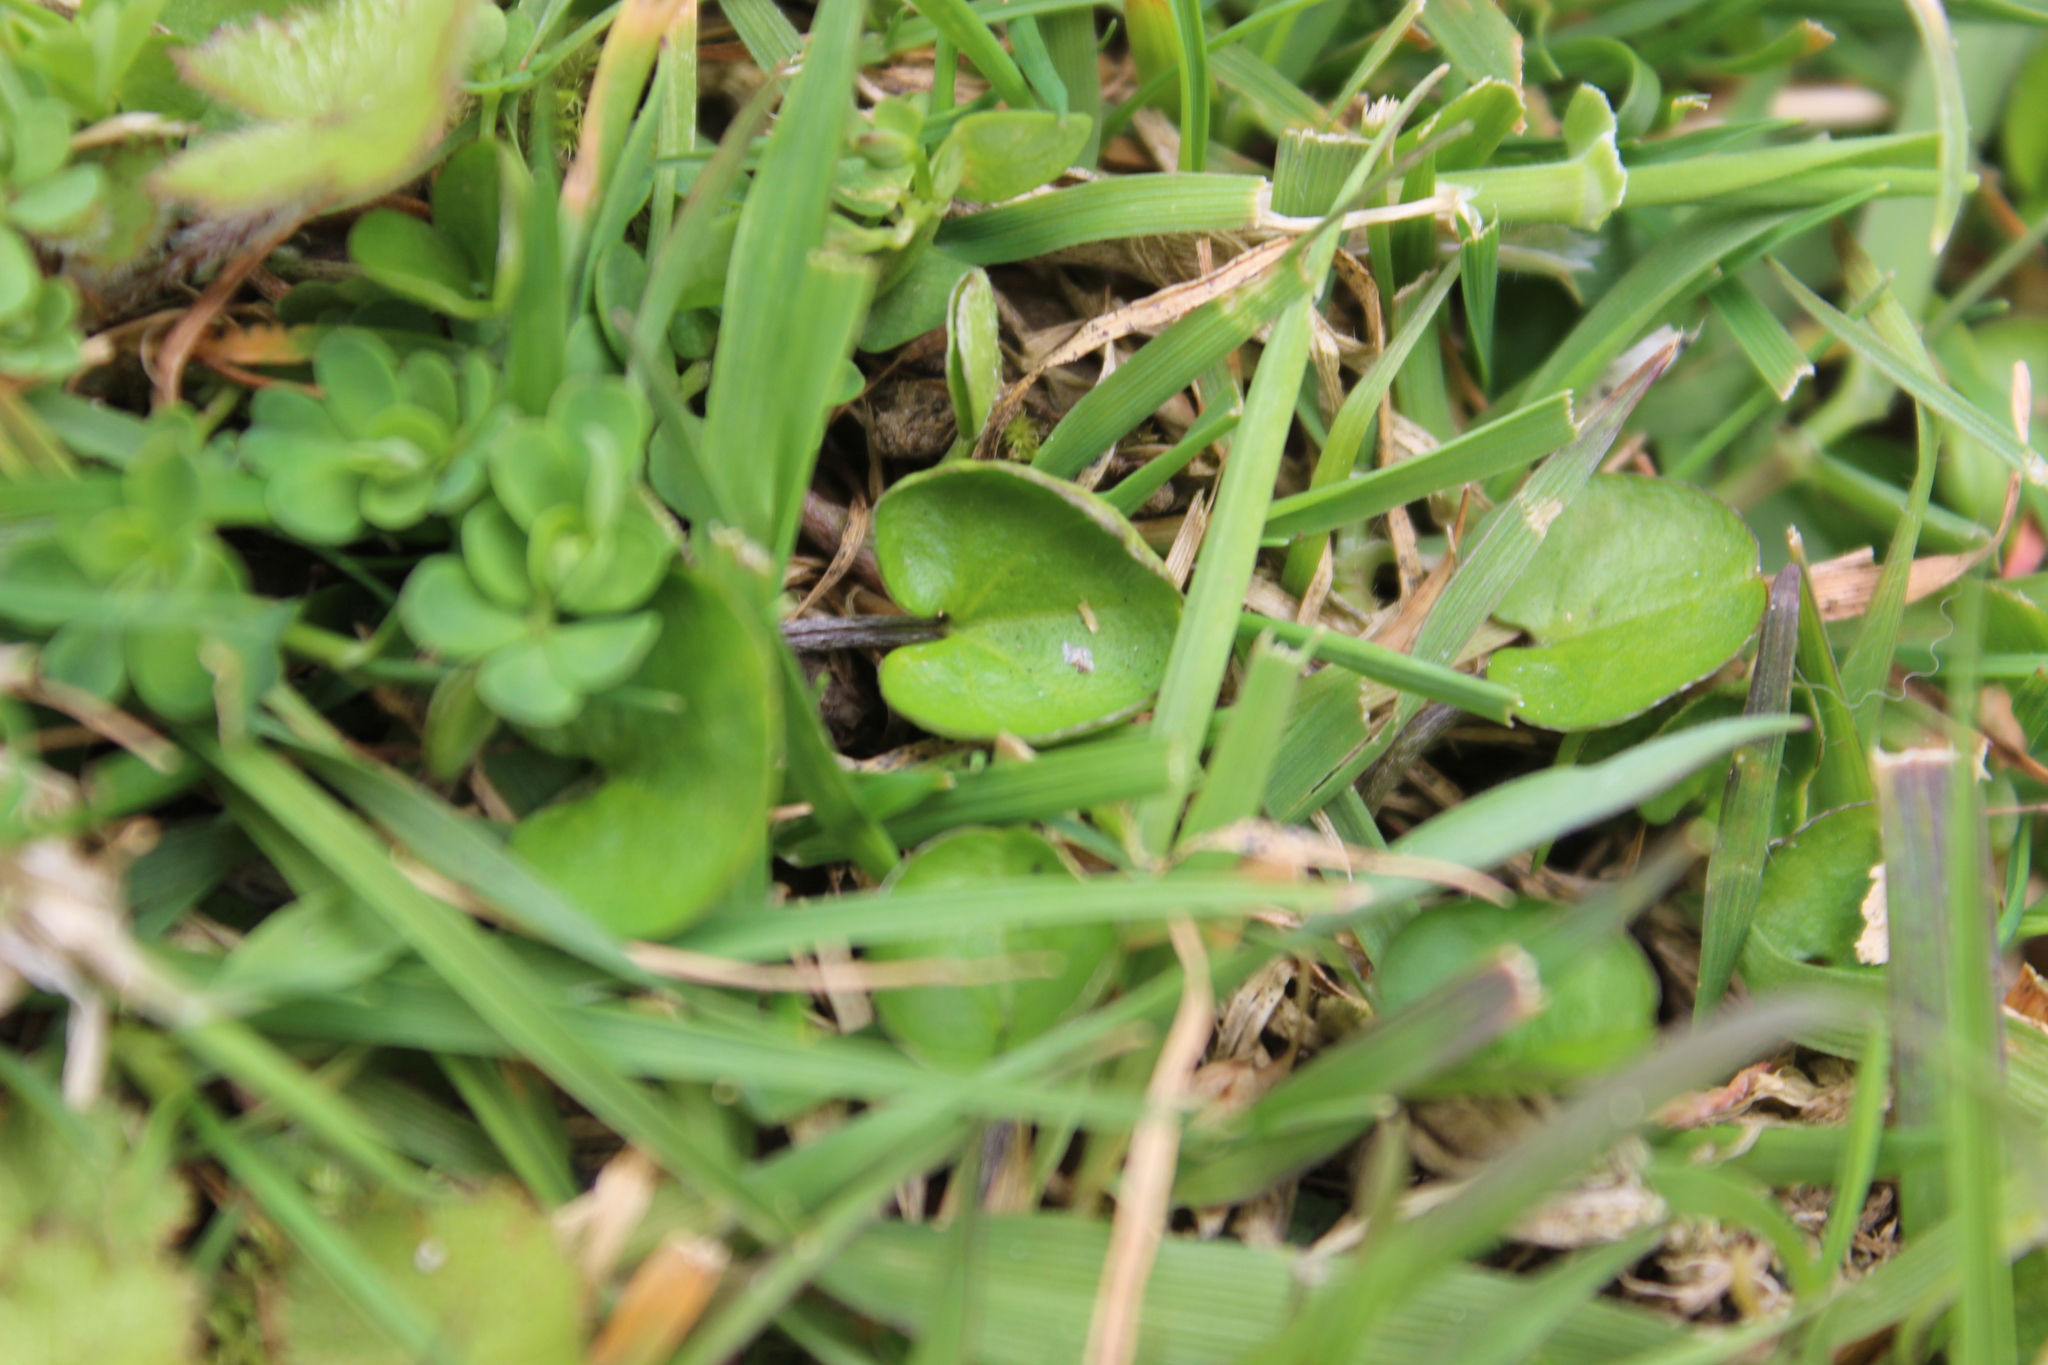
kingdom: Plantae
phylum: Tracheophyta
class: Magnoliopsida
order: Solanales
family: Convolvulaceae
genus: Dichondra
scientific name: Dichondra repens
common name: Kidneyweed
